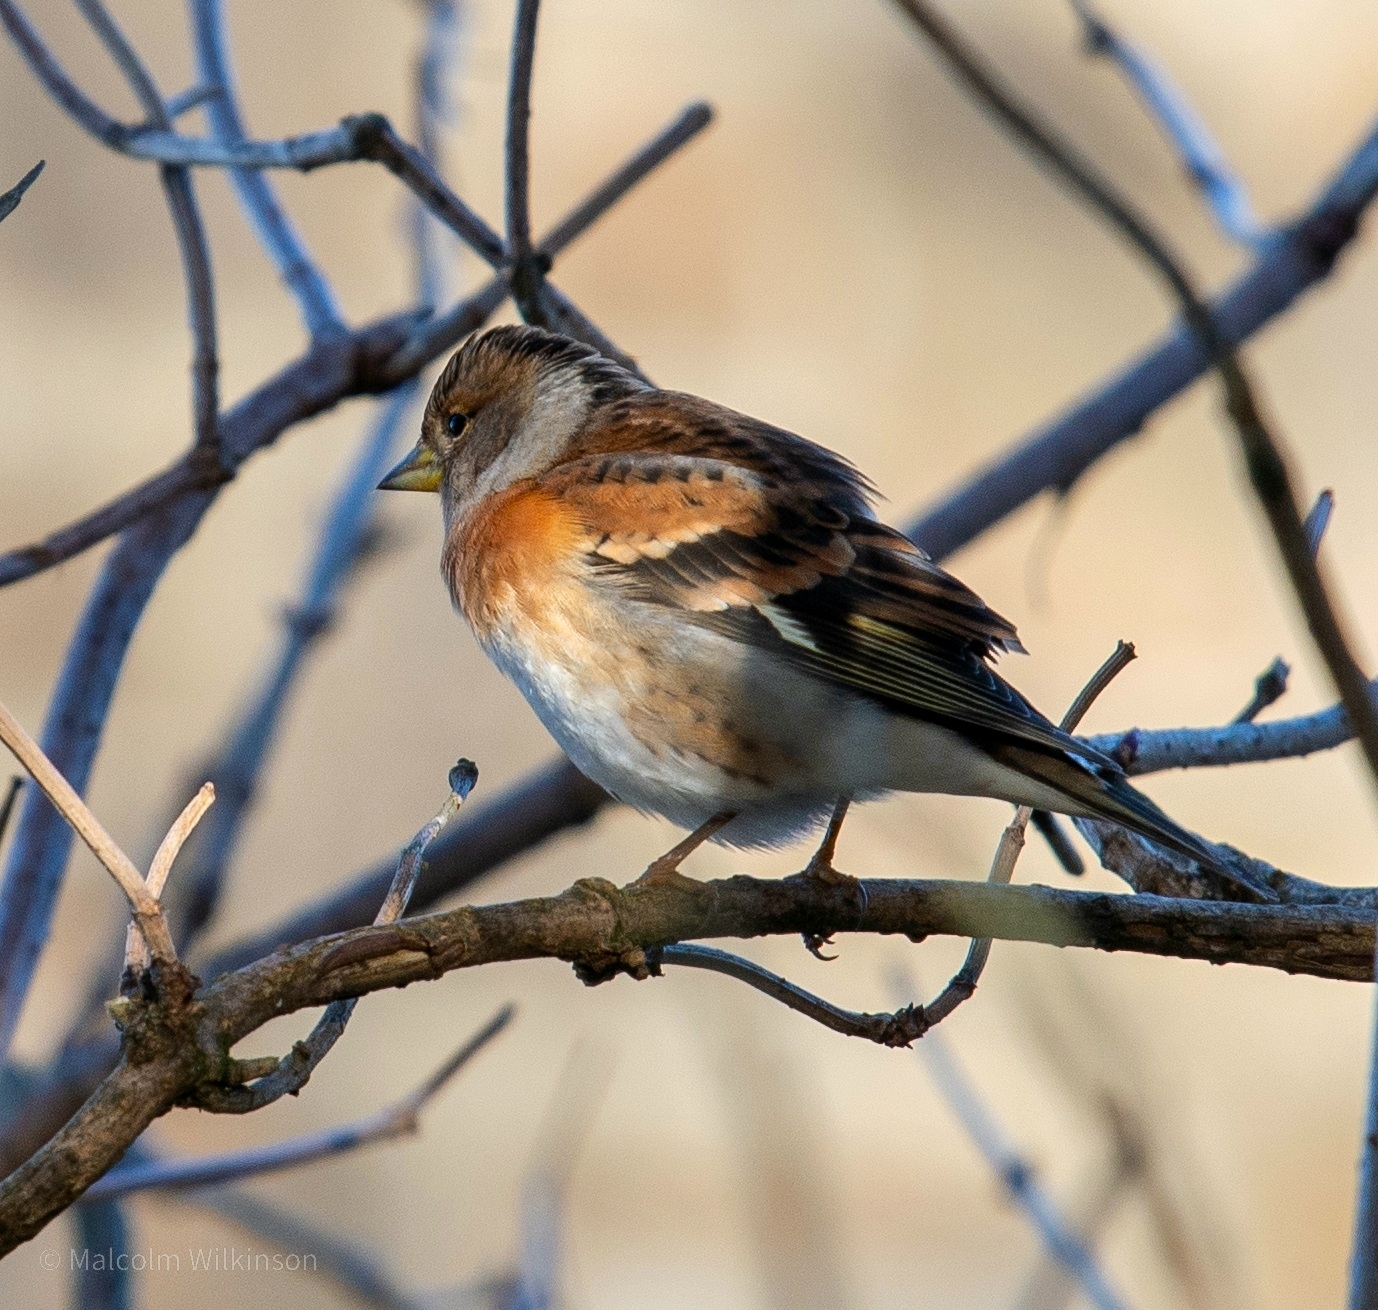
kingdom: Animalia
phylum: Chordata
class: Aves
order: Passeriformes
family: Fringillidae
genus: Fringilla
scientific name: Fringilla montifringilla
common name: Brambling
